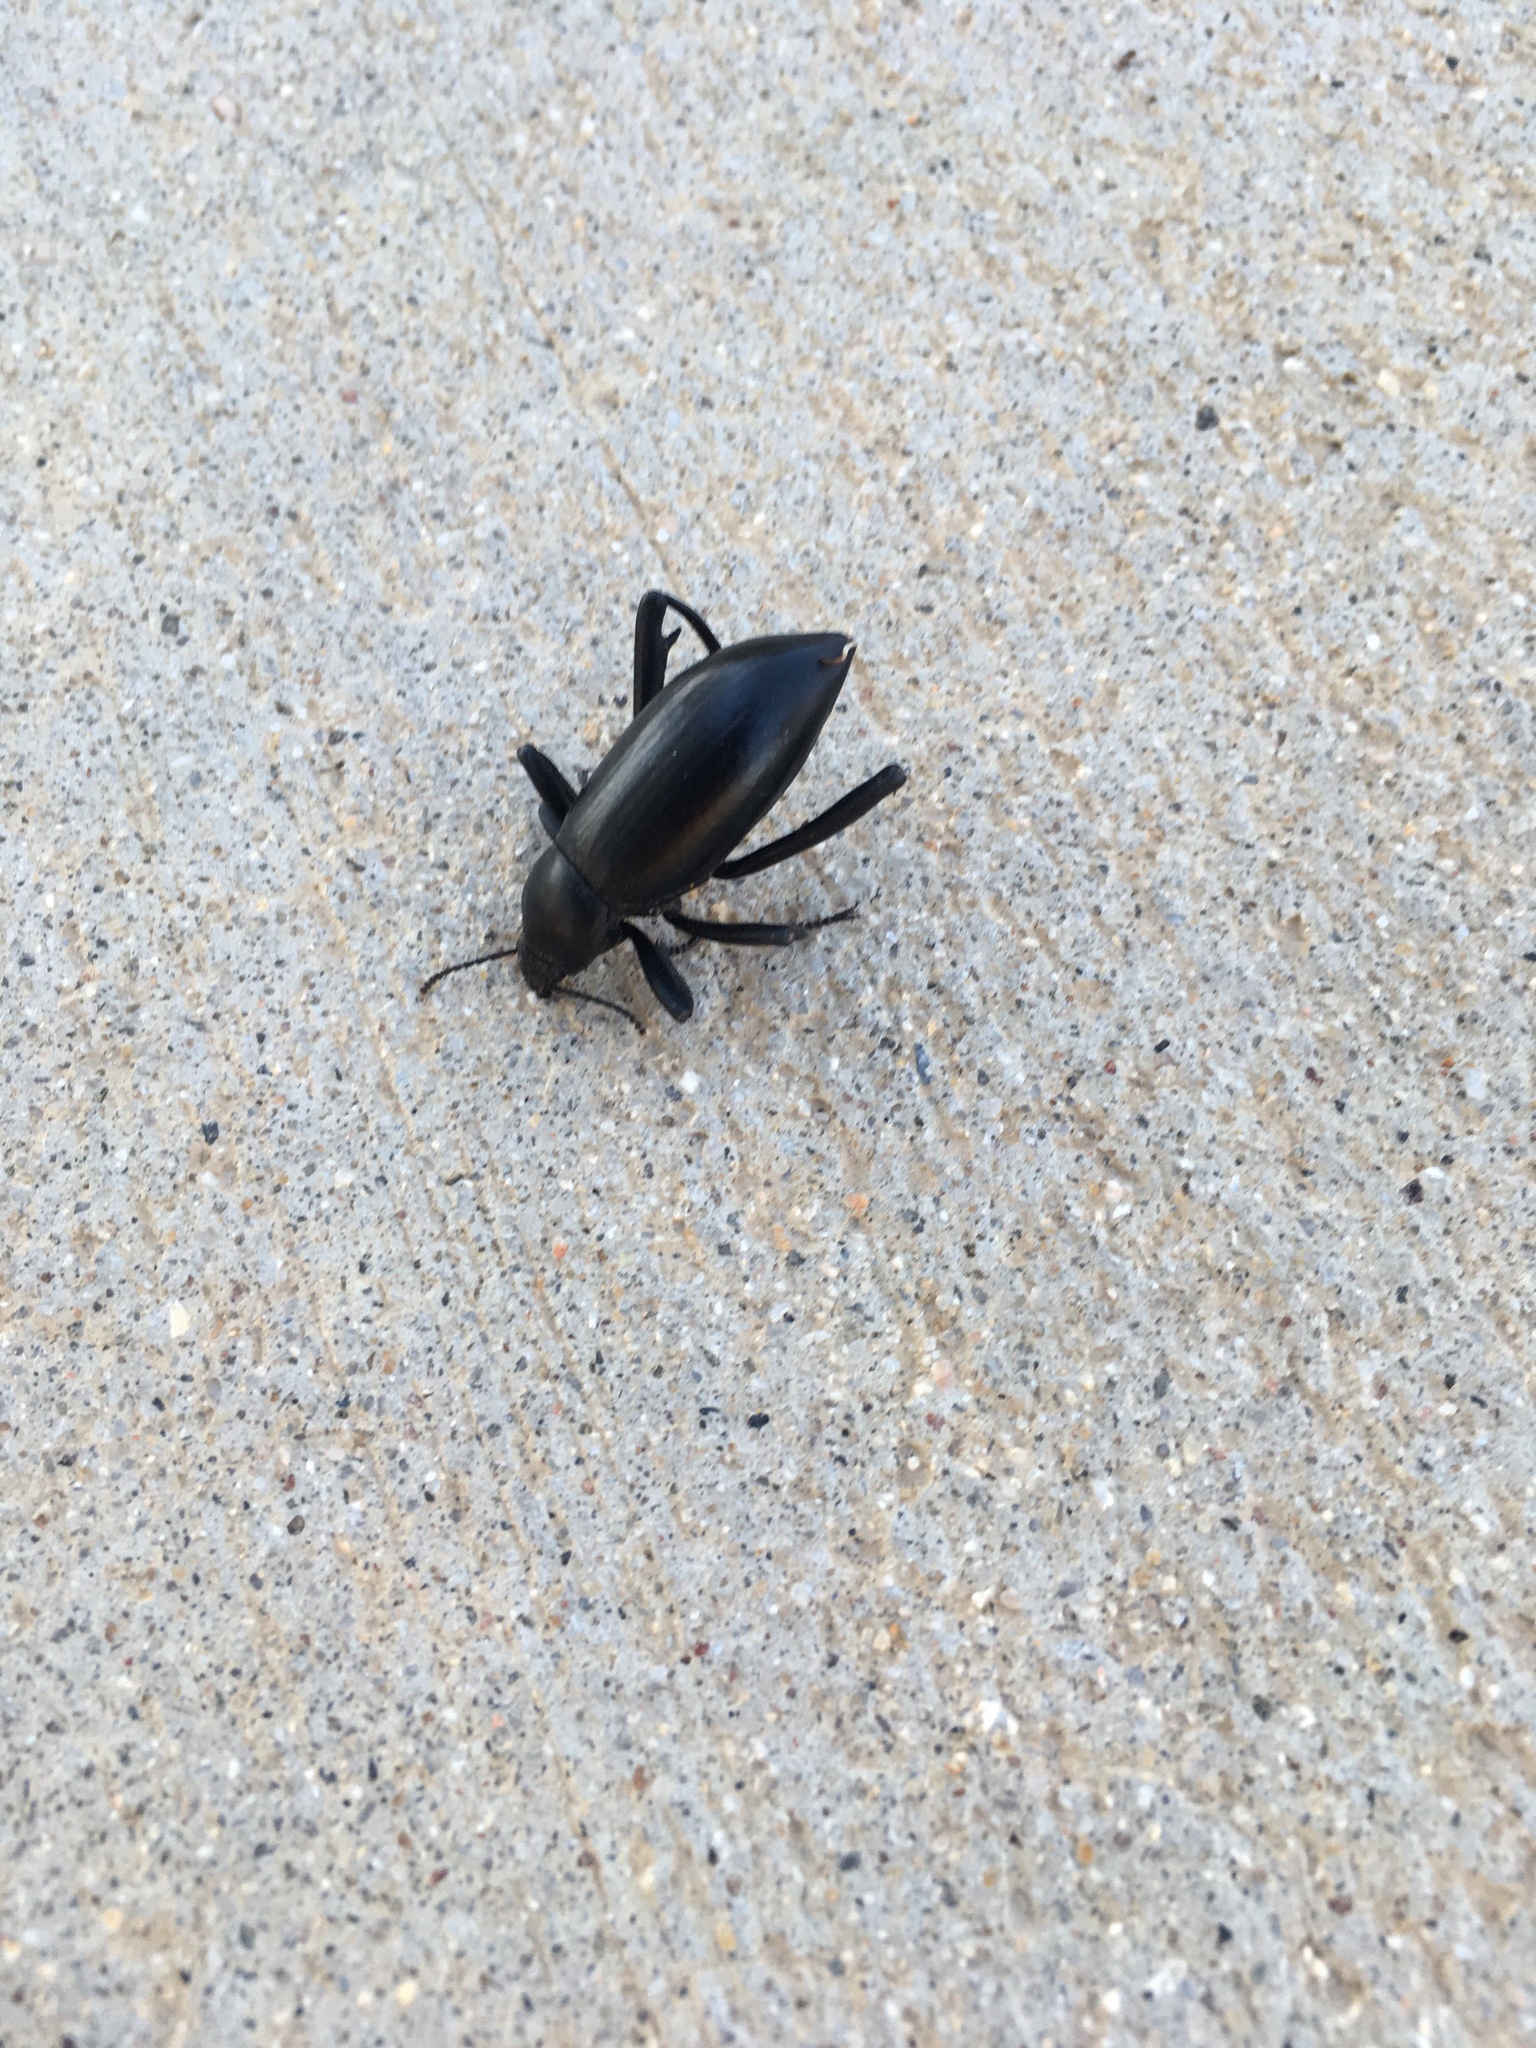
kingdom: Animalia
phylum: Arthropoda
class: Insecta
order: Coleoptera
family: Tenebrionidae
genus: Eleodes
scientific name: Eleodes armata
